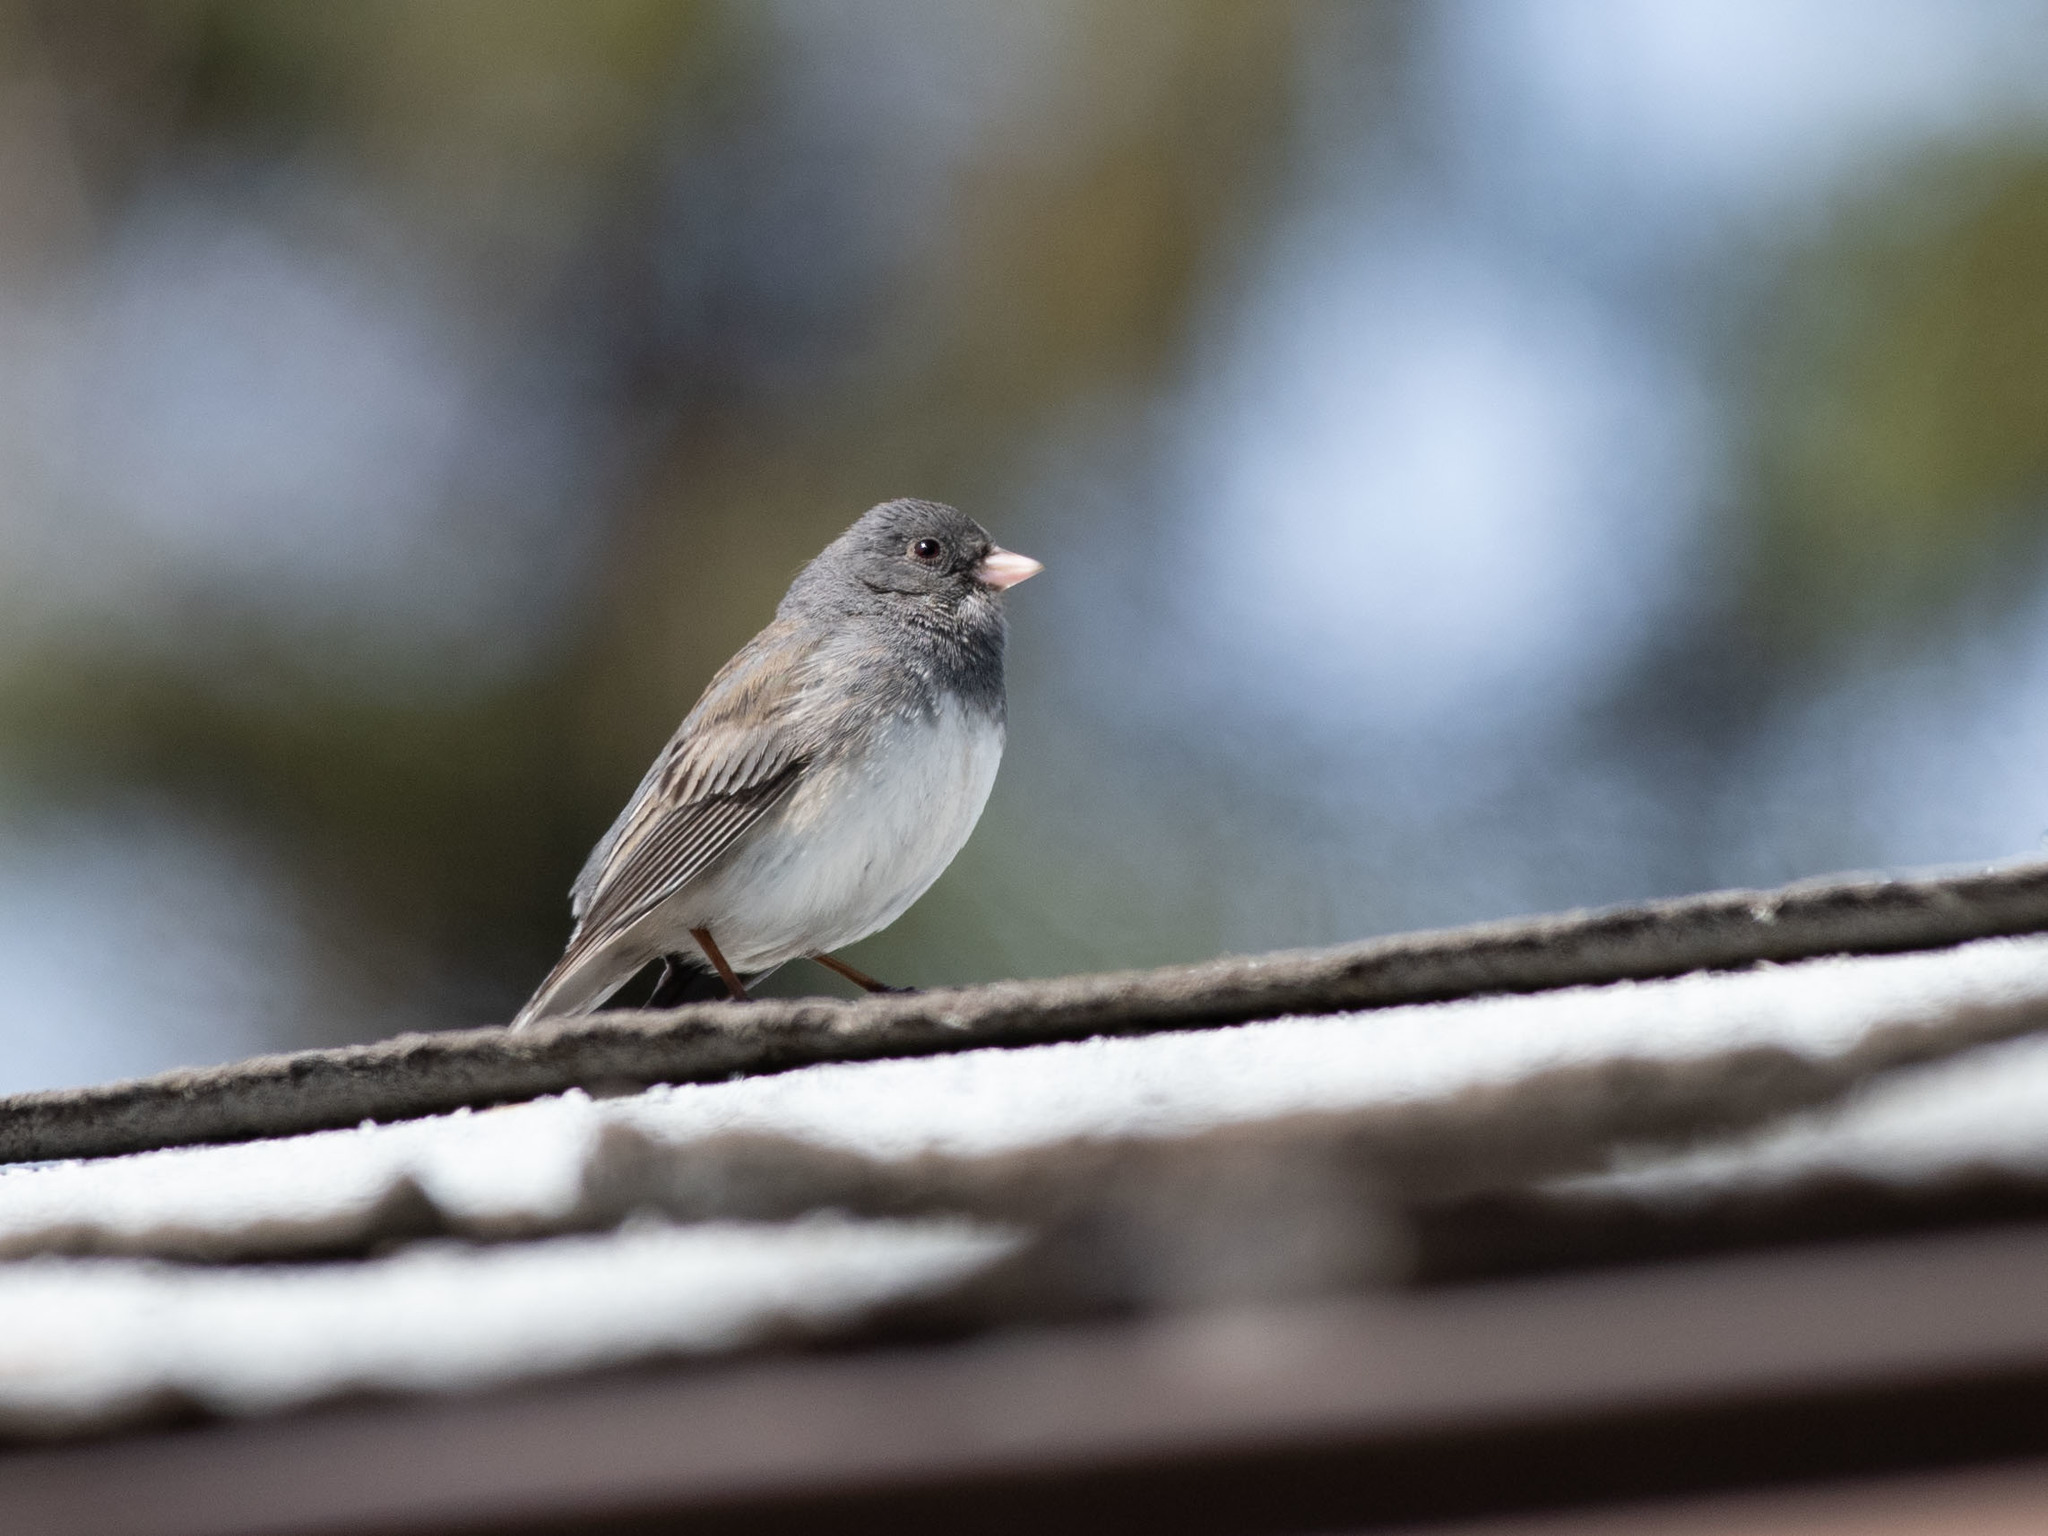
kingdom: Animalia
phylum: Chordata
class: Aves
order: Passeriformes
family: Passerellidae
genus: Junco
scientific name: Junco hyemalis
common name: Dark-eyed junco
